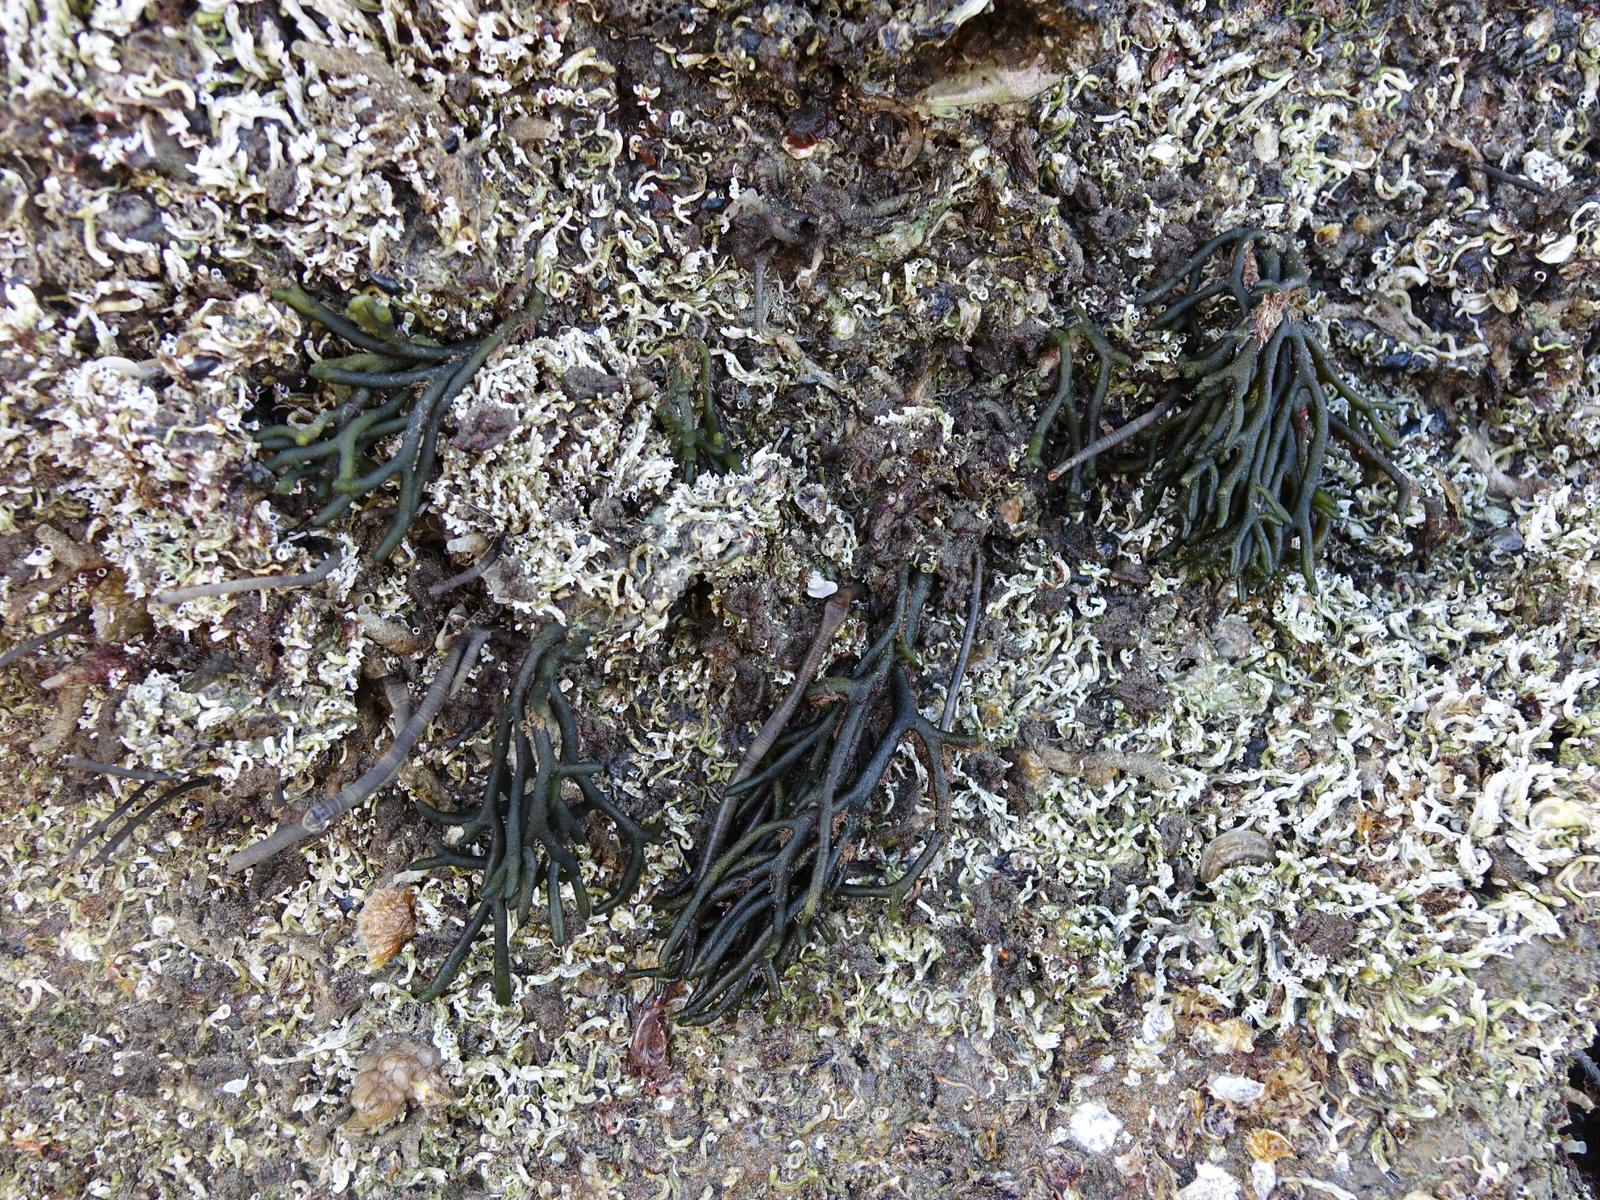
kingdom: Plantae
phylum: Chlorophyta
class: Ulvophyceae
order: Bryopsidales
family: Codiaceae
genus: Codium
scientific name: Codium fragile
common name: Dead man's fingers
